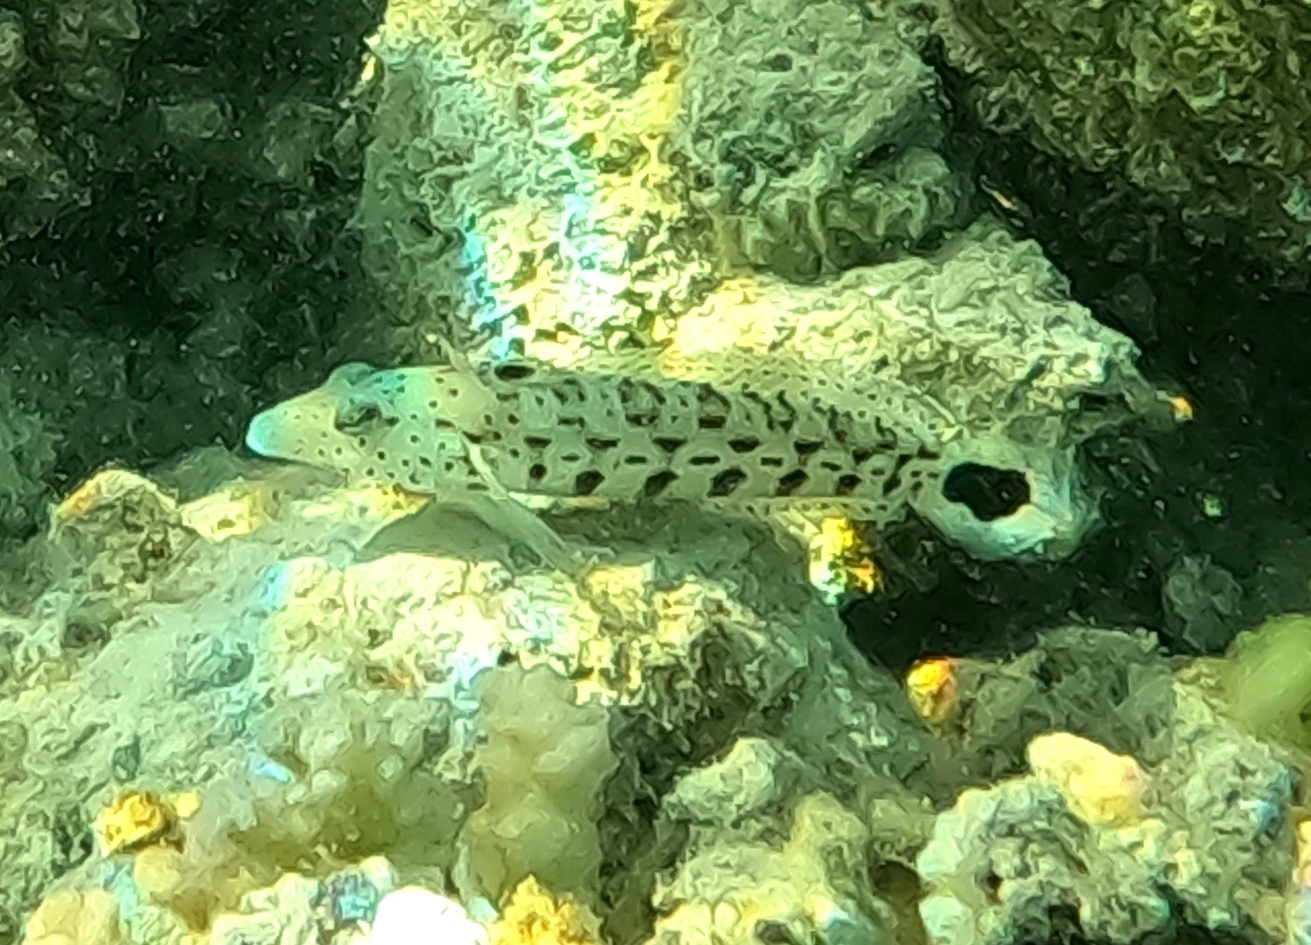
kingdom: Animalia
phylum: Chordata
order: Perciformes
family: Pinguipedidae
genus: Parapercis
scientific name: Parapercis hexophtalma
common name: Speckled sandperch
